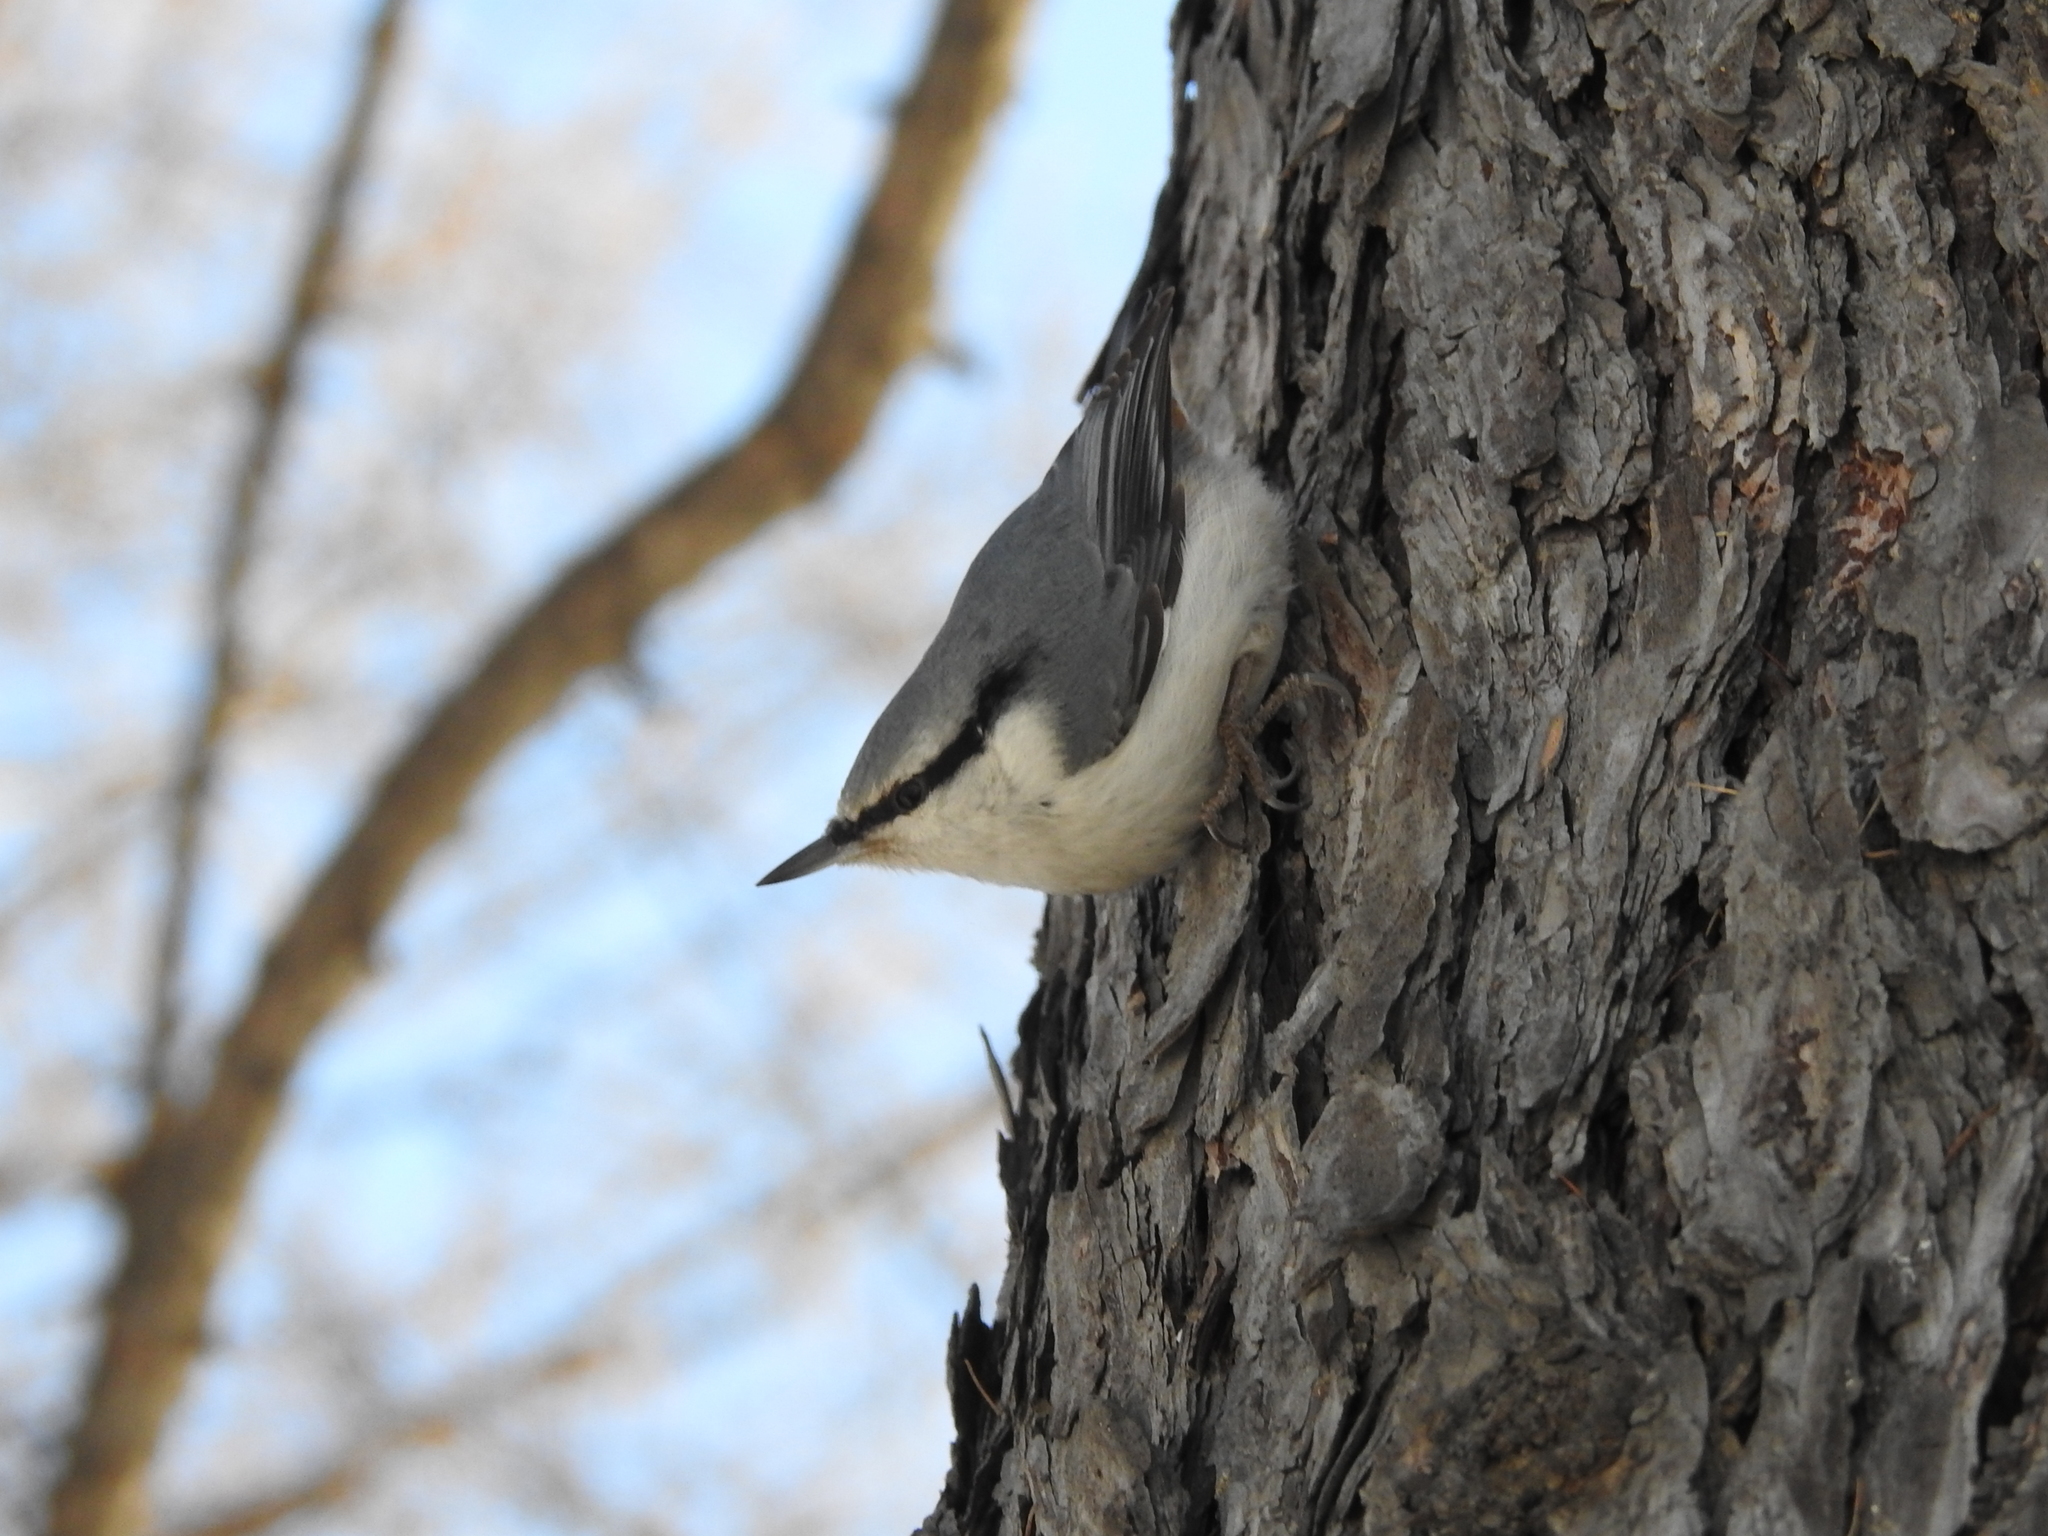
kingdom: Animalia
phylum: Chordata
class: Aves
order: Passeriformes
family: Sittidae
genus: Sitta
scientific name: Sitta europaea
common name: Eurasian nuthatch
